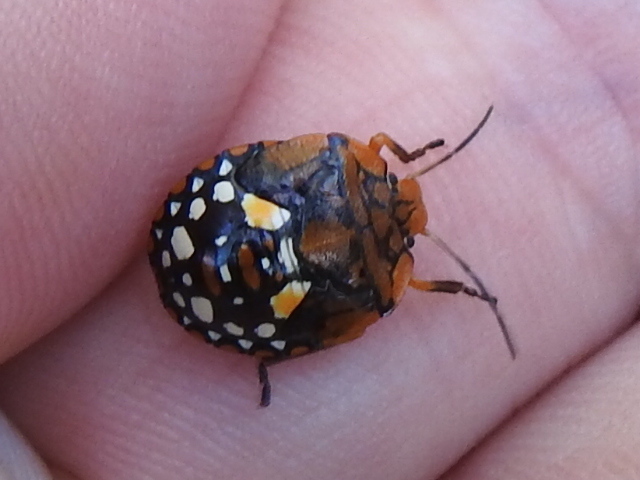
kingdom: Animalia
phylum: Arthropoda
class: Insecta
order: Hemiptera
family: Pentatomidae
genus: Acrosternum
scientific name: Acrosternum marginatum
